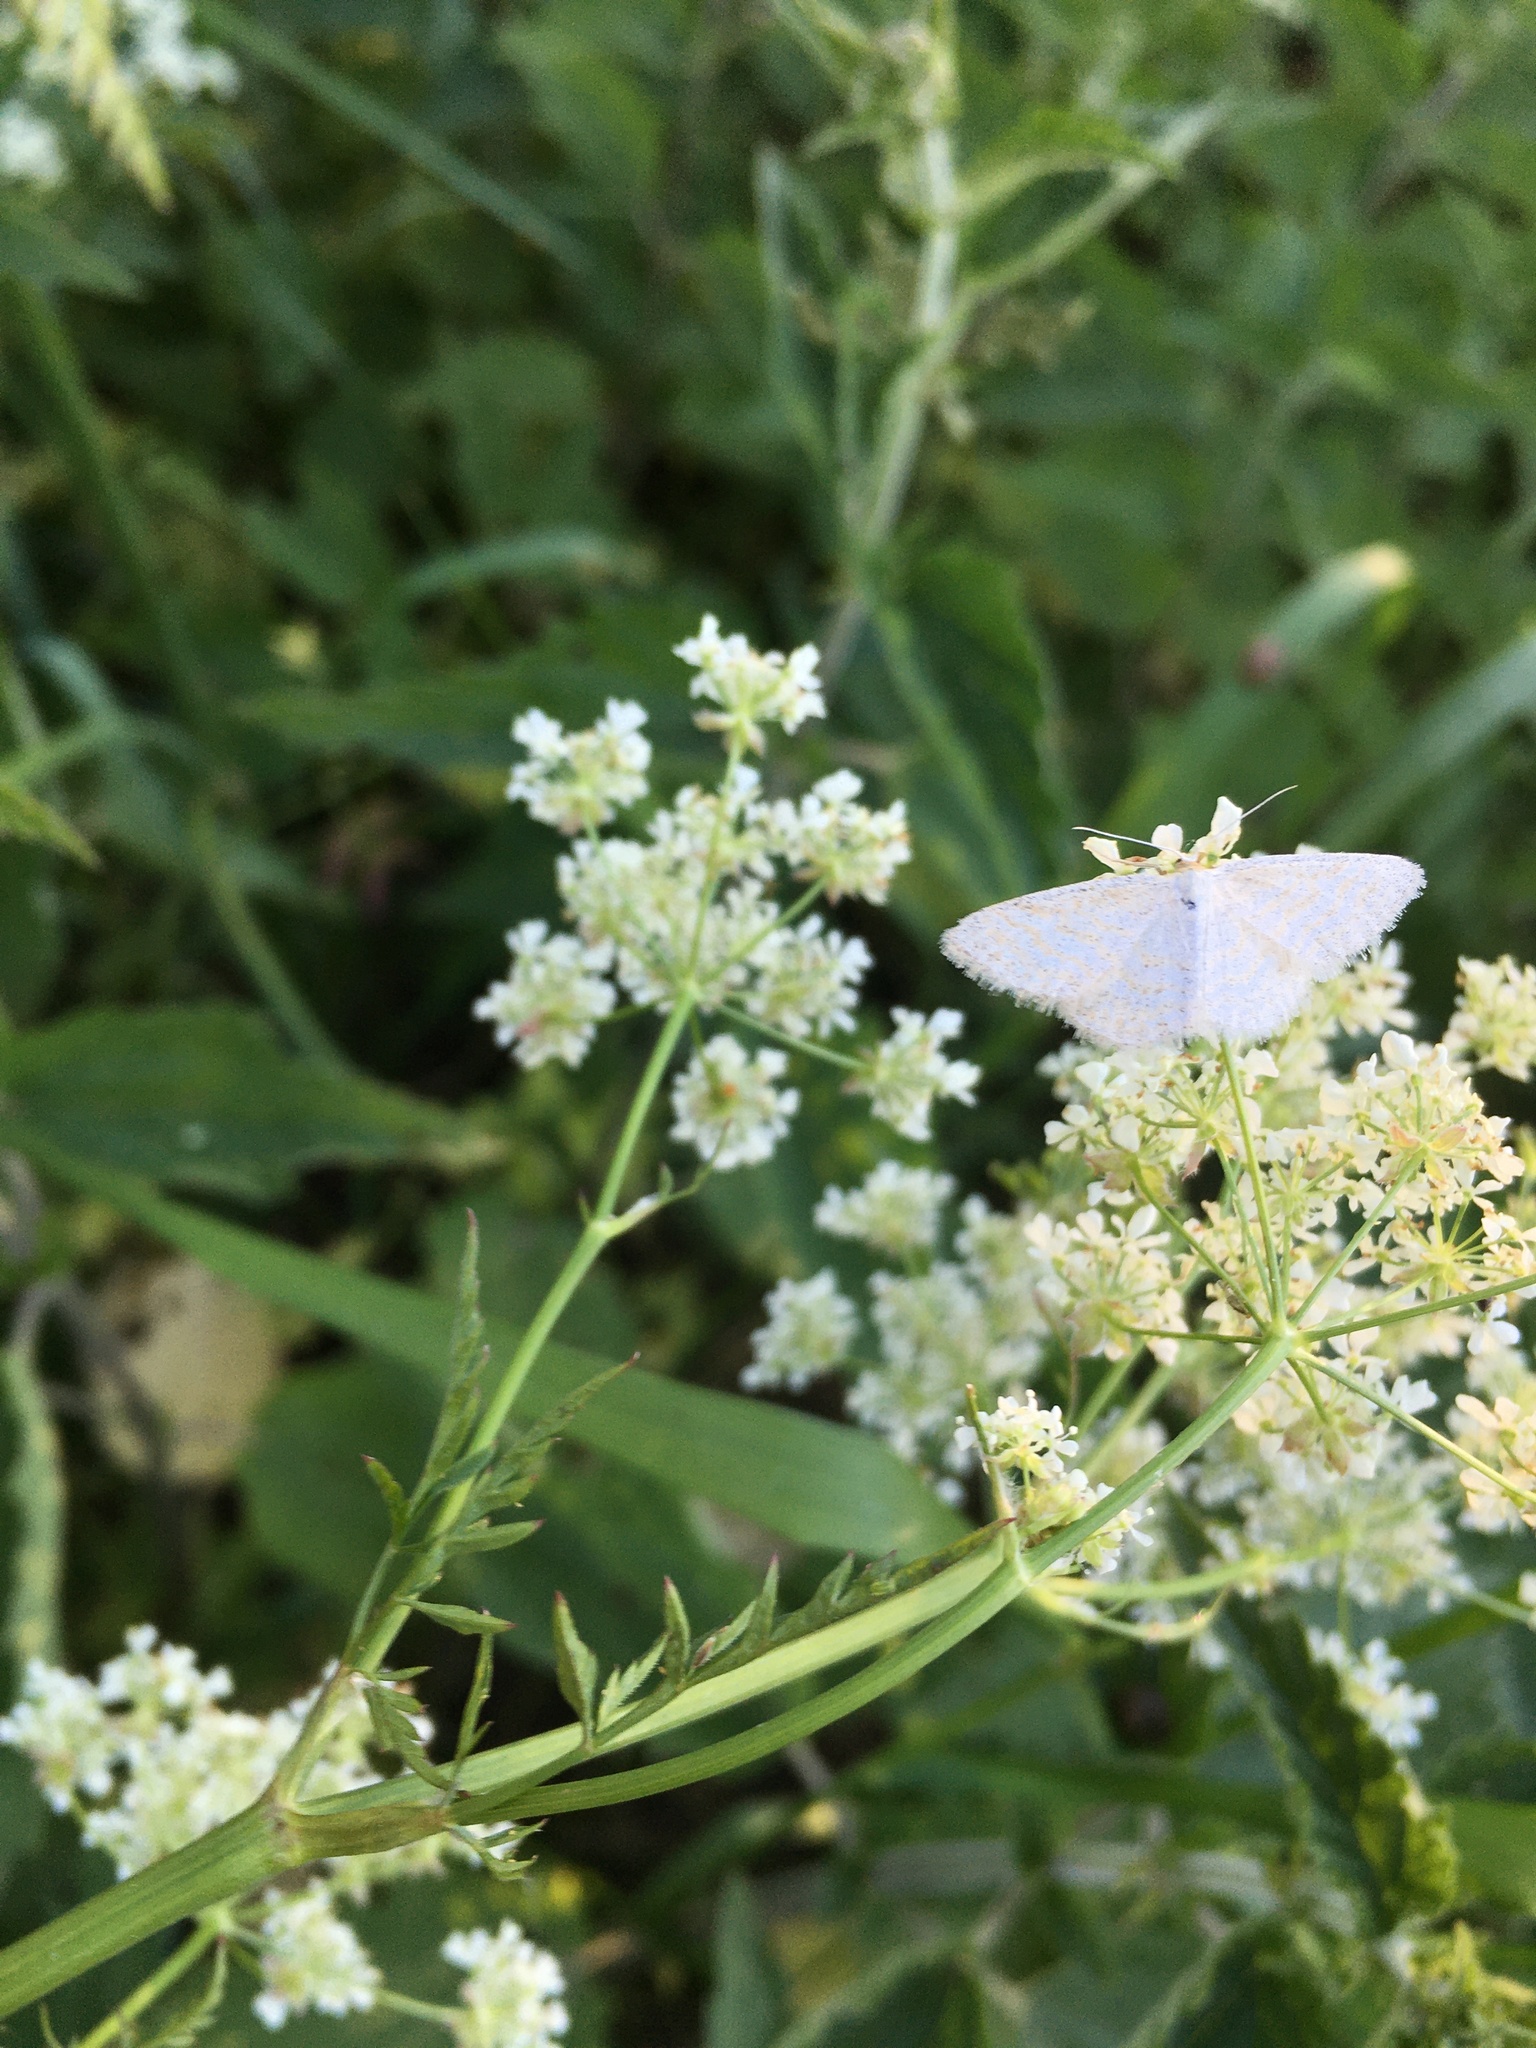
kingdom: Animalia
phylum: Arthropoda
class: Insecta
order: Lepidoptera
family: Geometridae
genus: Idaea
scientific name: Idaea pallidata
